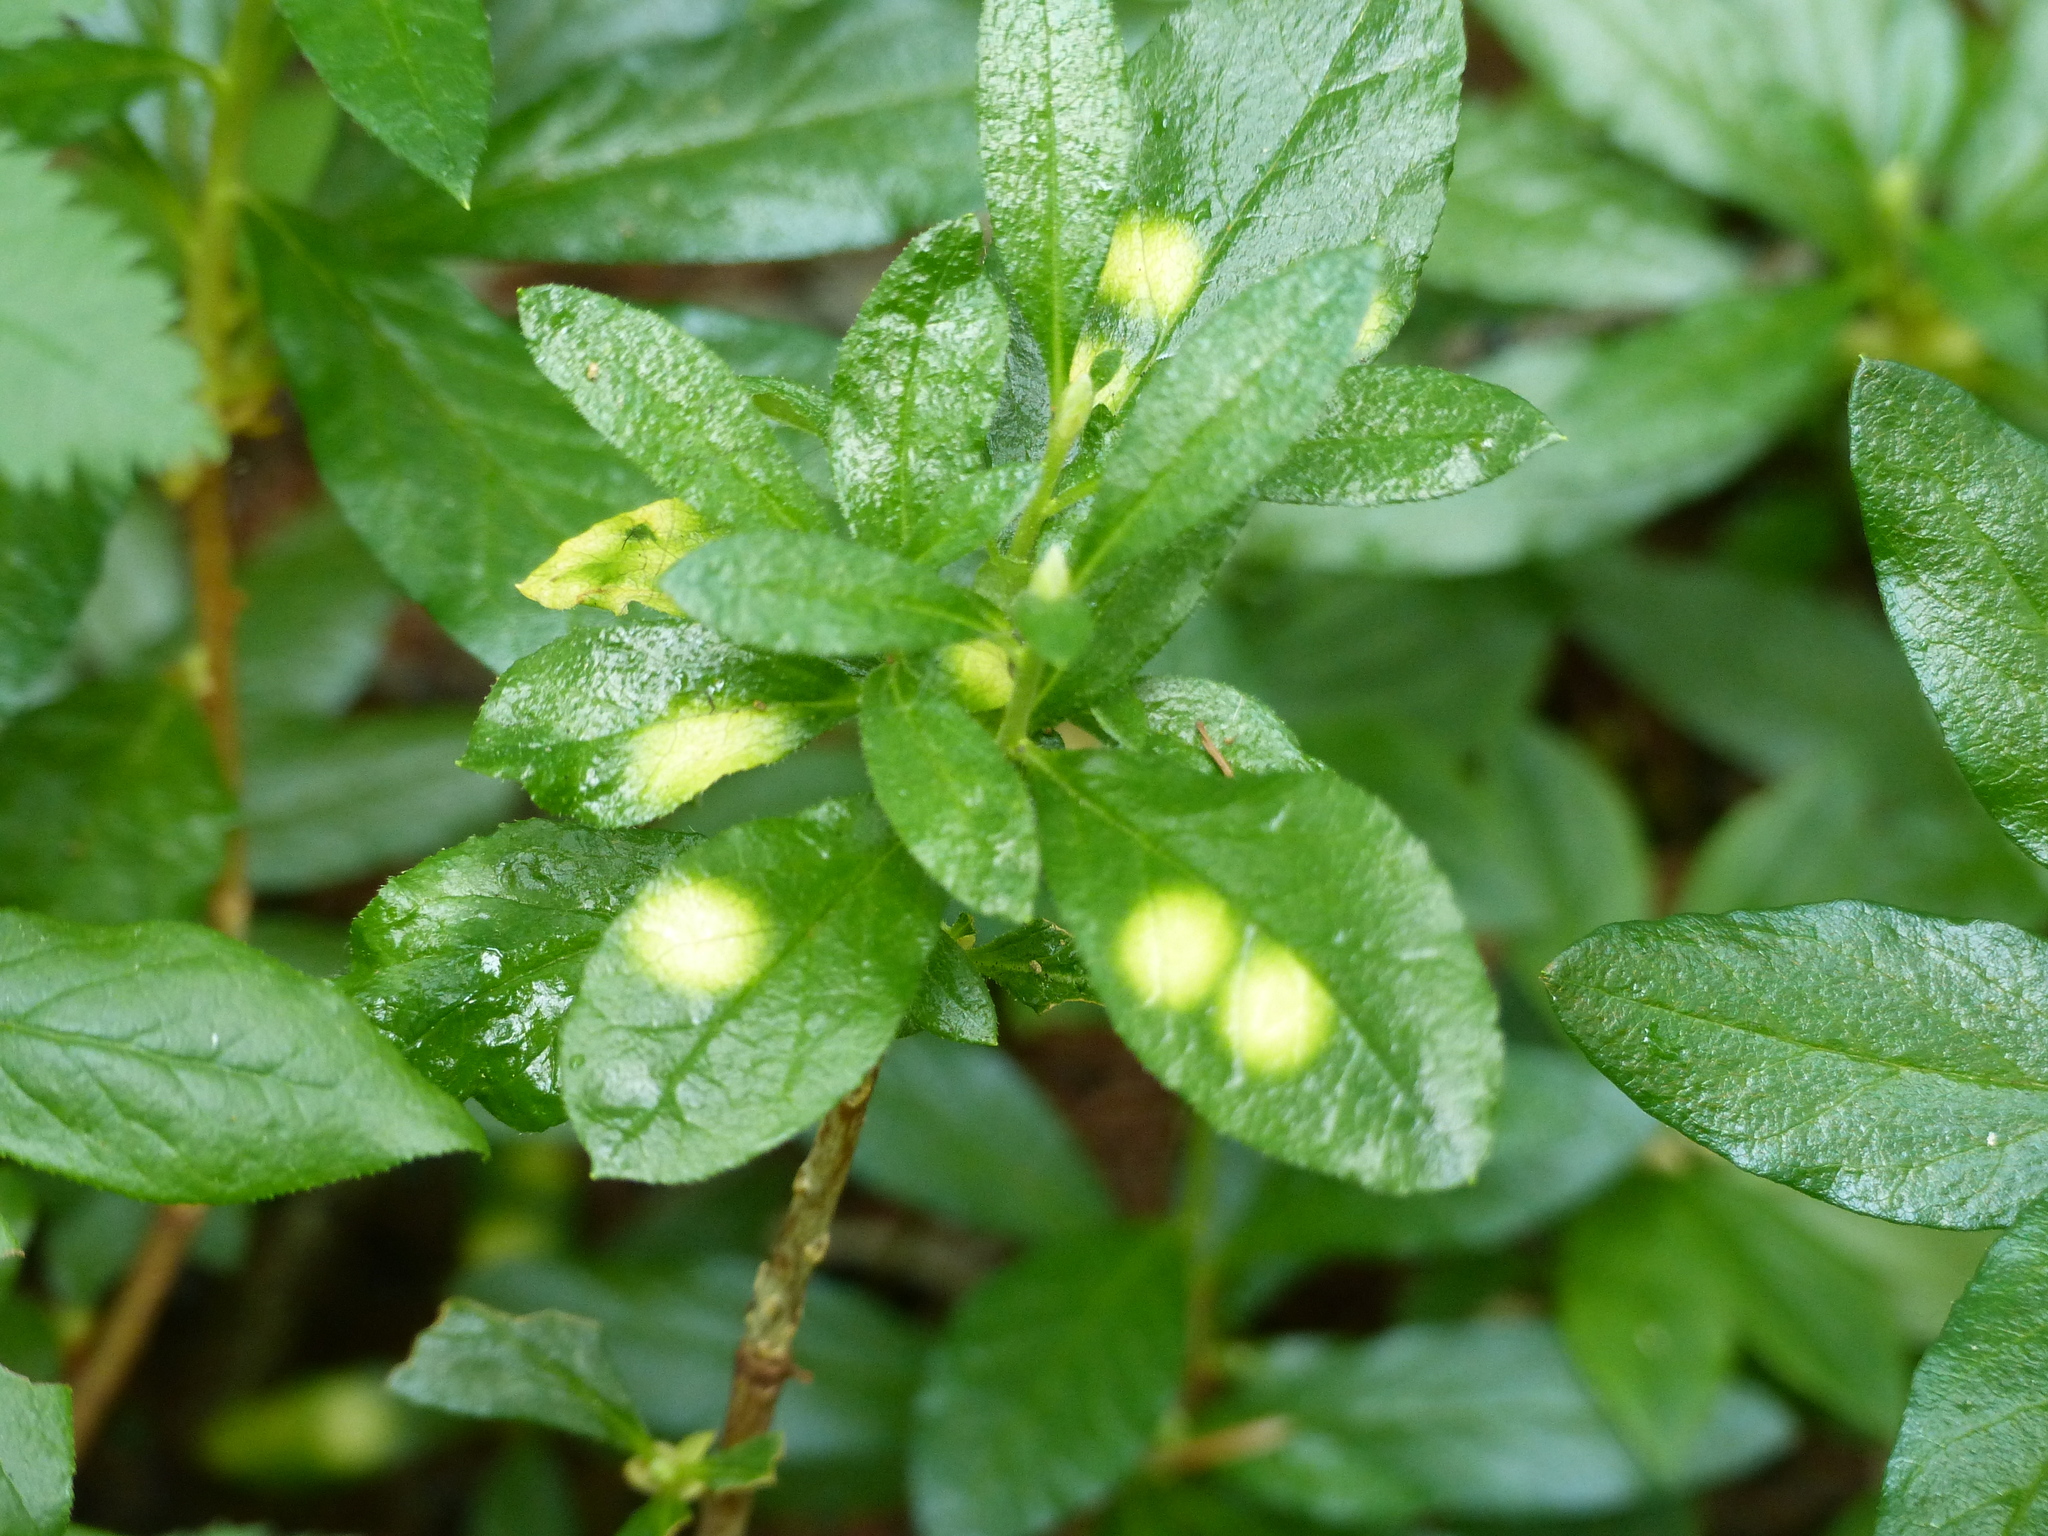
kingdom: Plantae
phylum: Tracheophyta
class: Magnoliopsida
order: Ericales
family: Ericaceae
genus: Rhododendron
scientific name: Rhododendron albiflorum
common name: White rhododendron
